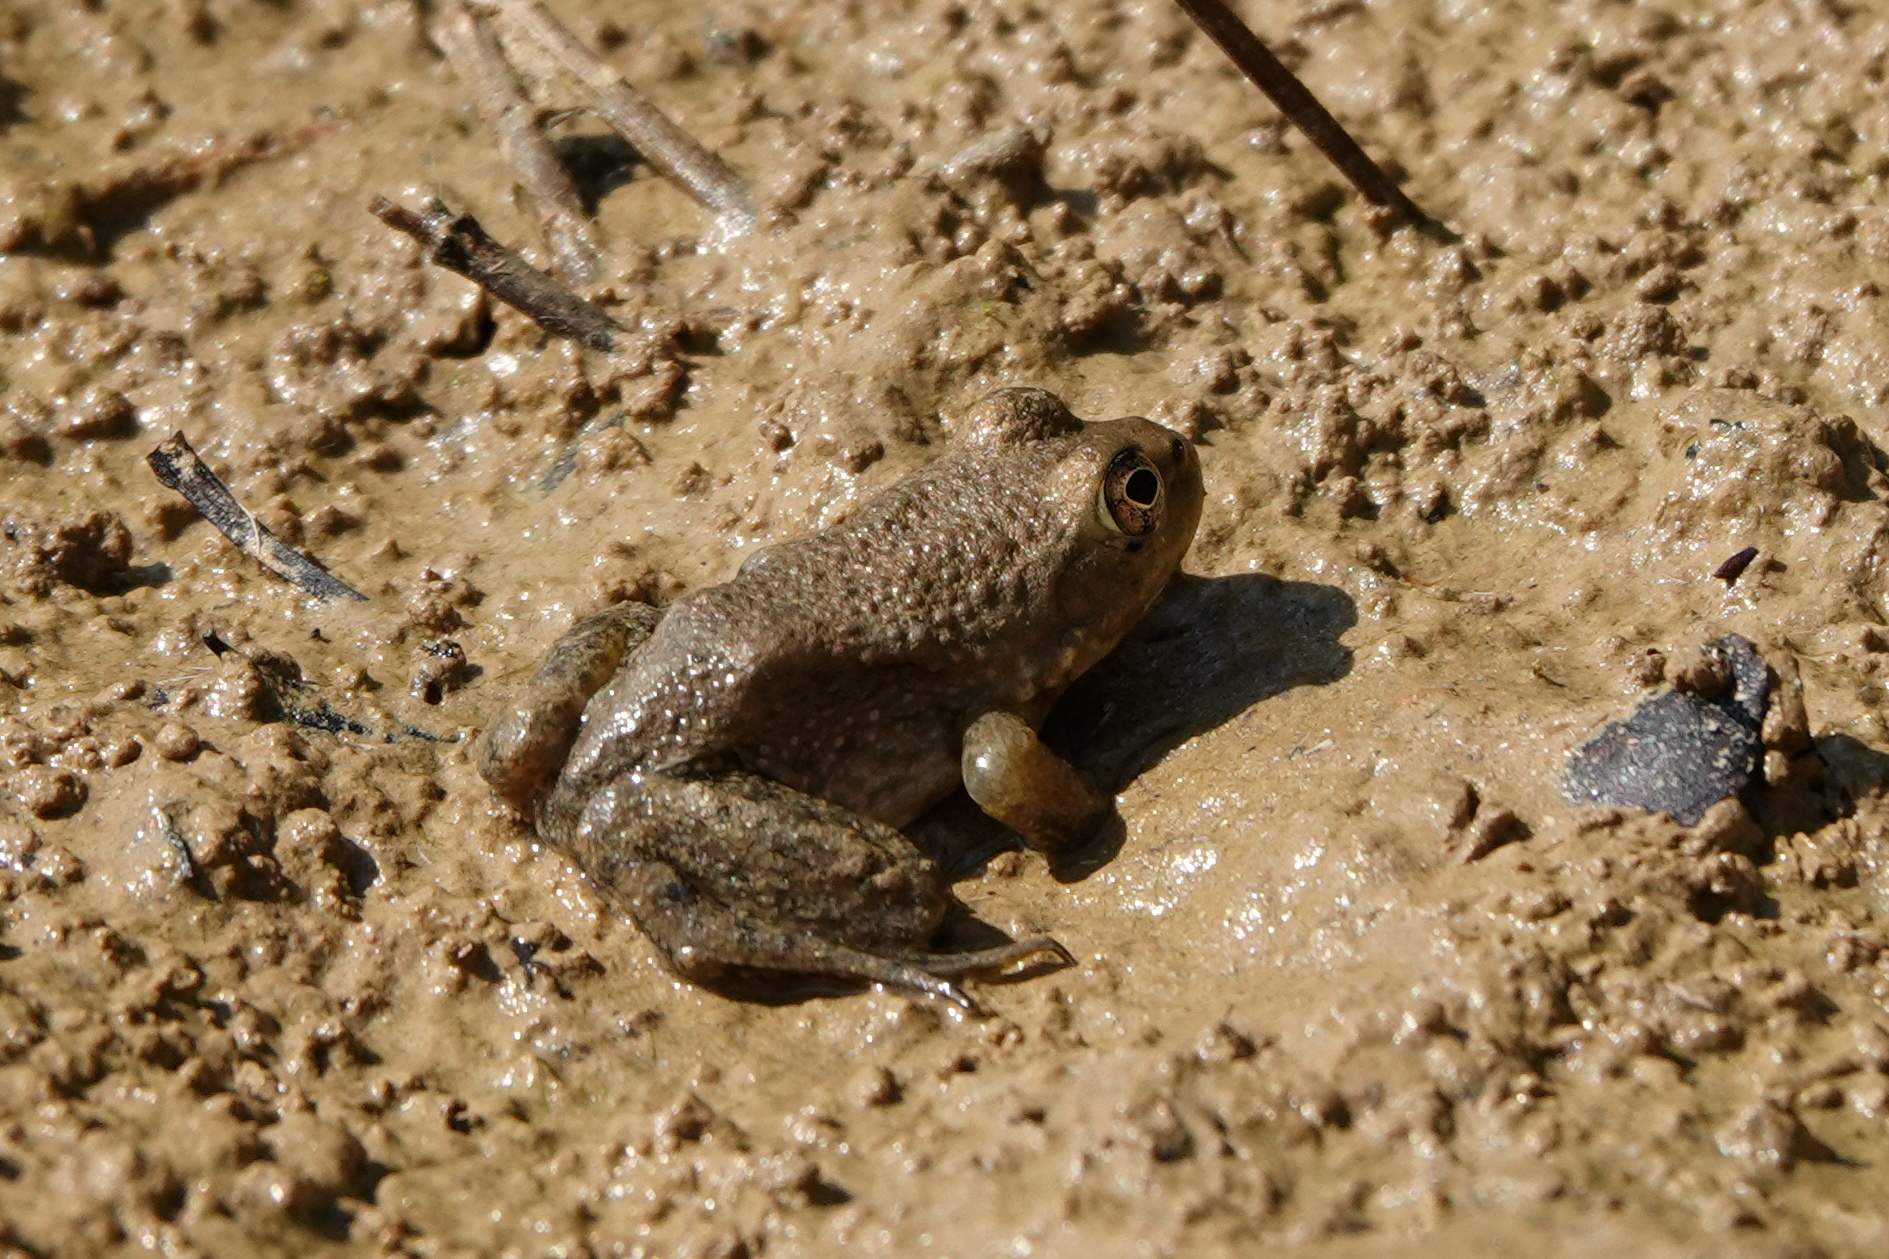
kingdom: Animalia
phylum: Chordata
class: Amphibia
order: Anura
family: Ranidae
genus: Lithobates
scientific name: Lithobates catesbeianus
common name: American bullfrog
